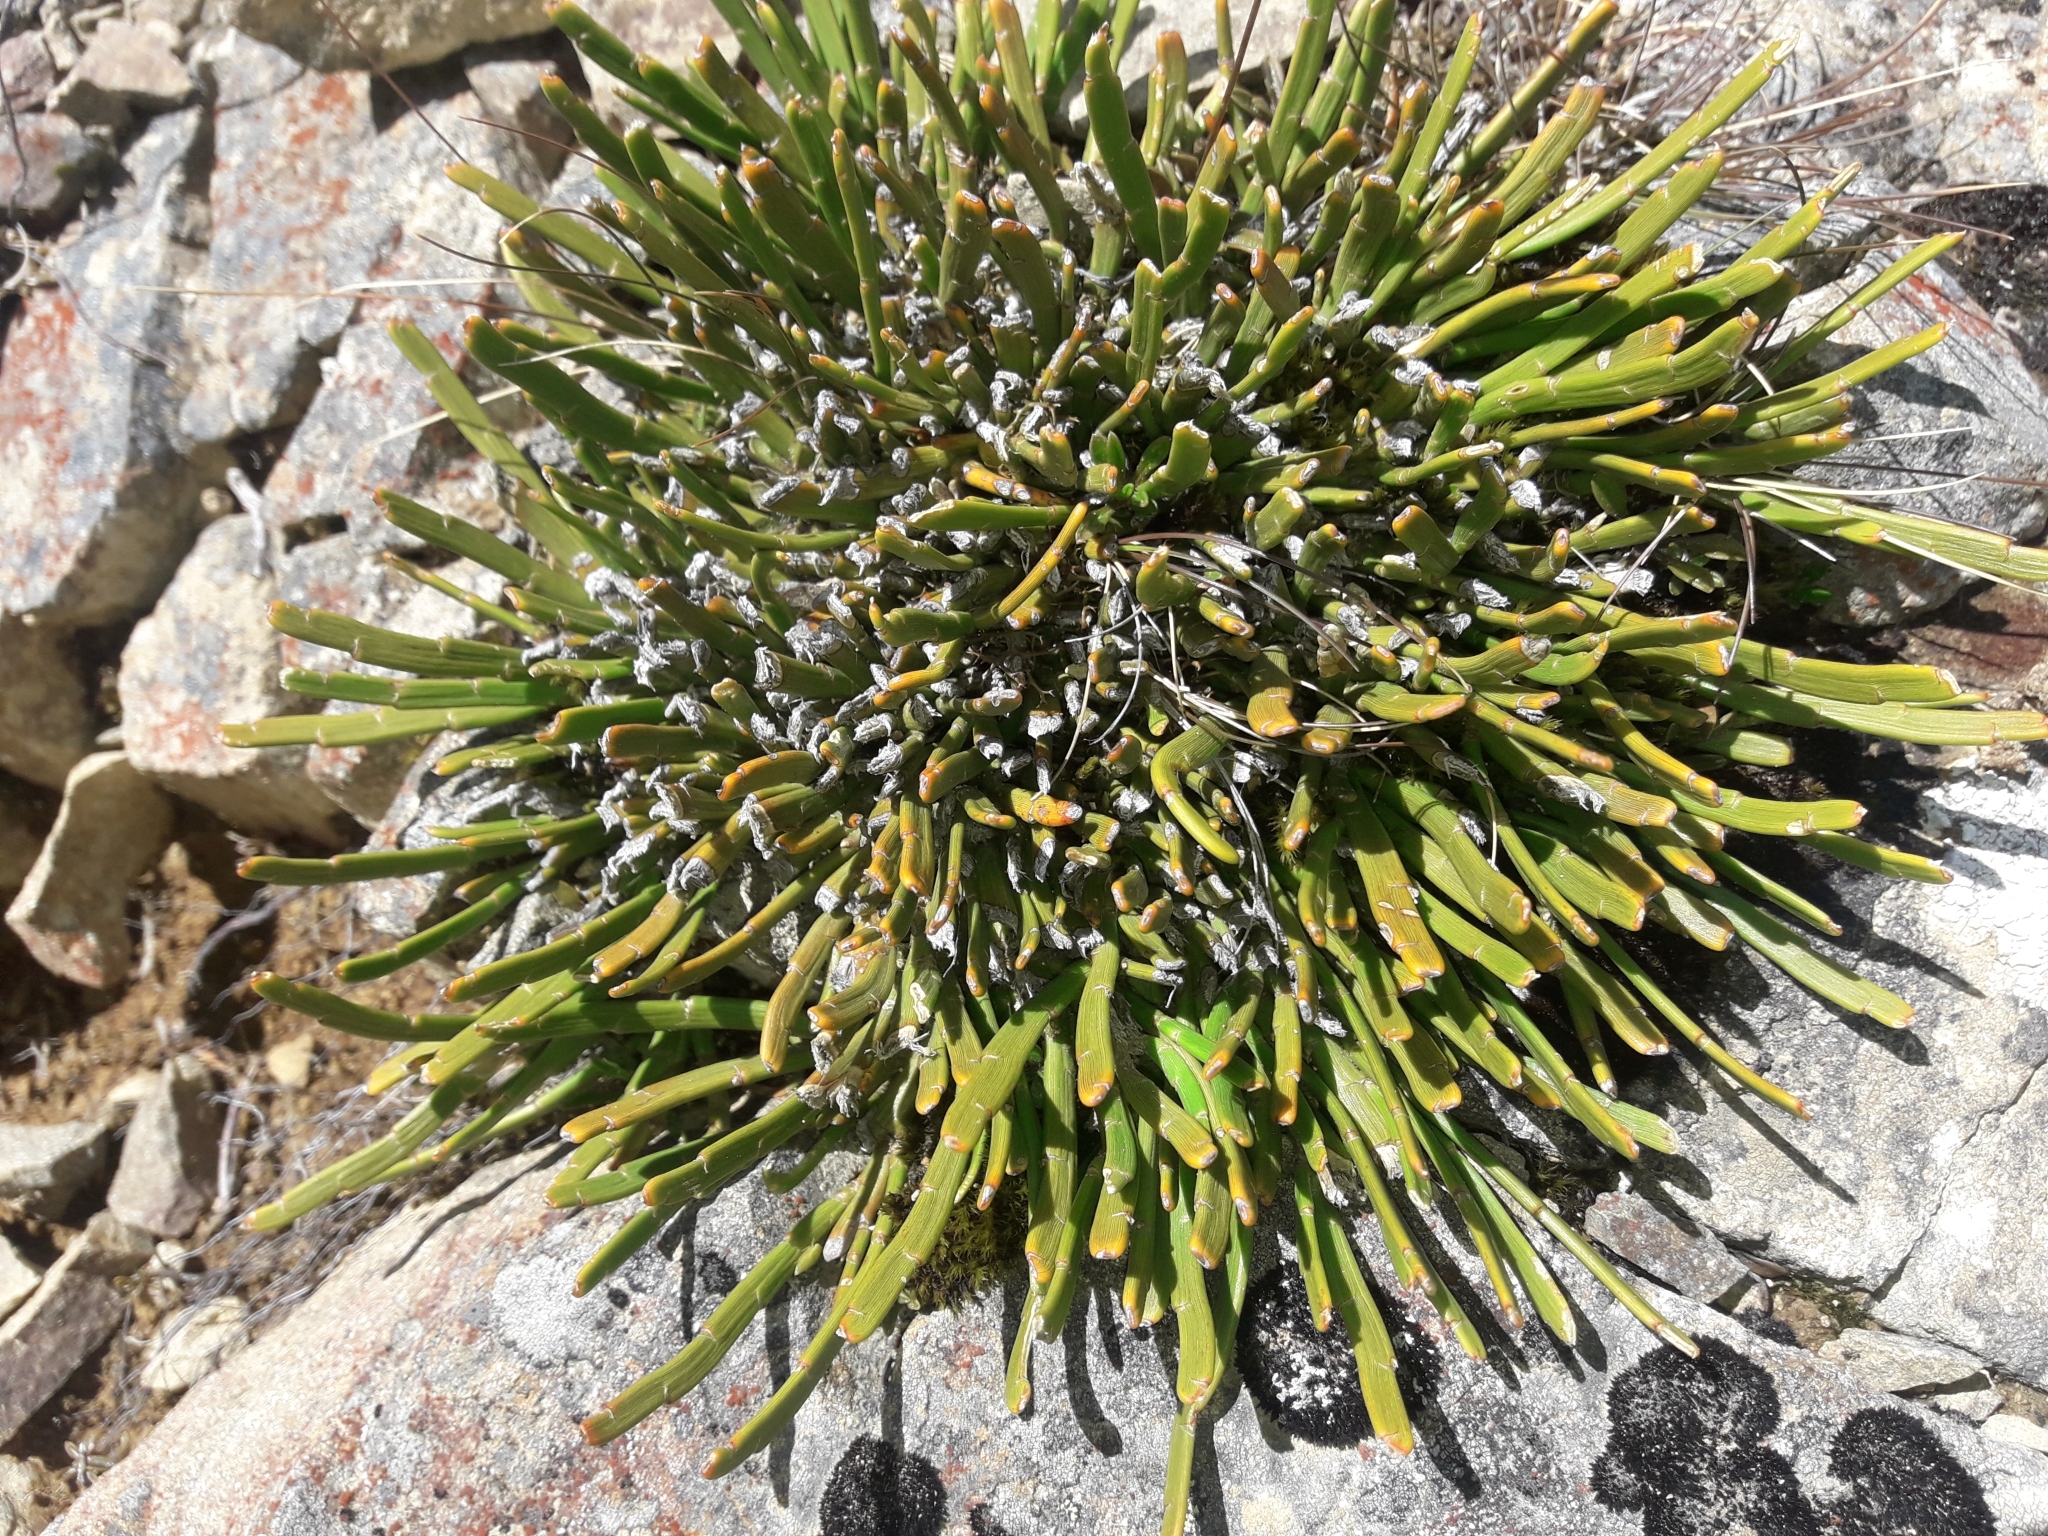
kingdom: Plantae
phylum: Tracheophyta
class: Magnoliopsida
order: Fabales
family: Fabaceae
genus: Carmichaelia
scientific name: Carmichaelia monroi
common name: Stout dwarf broom
